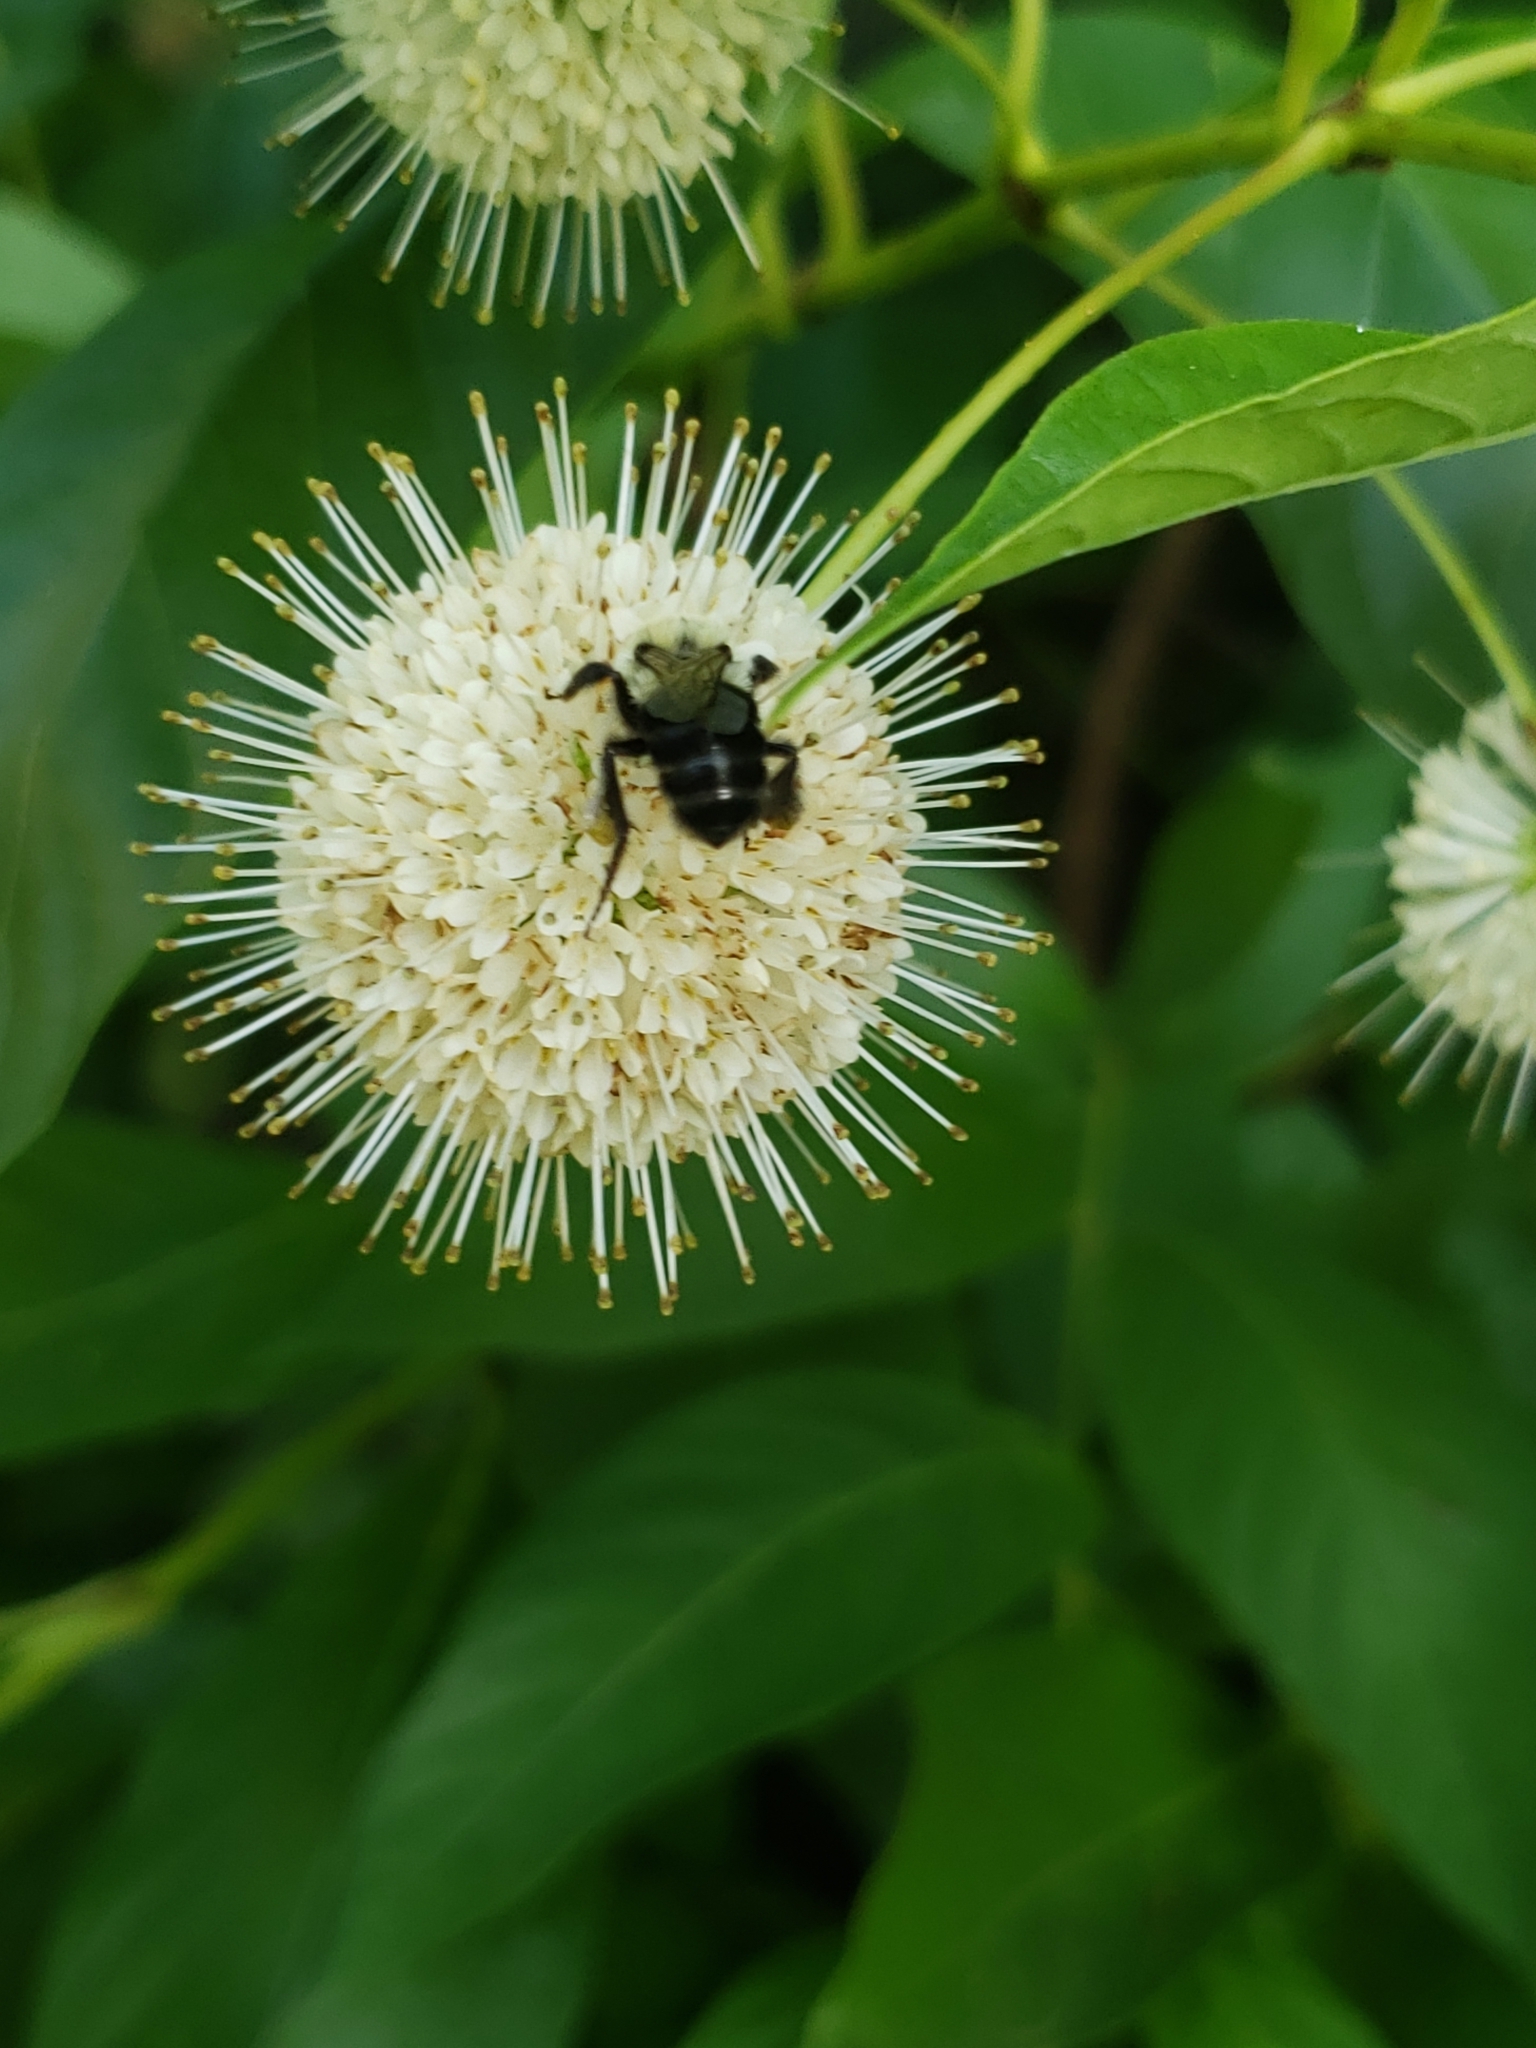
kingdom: Animalia
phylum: Arthropoda
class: Insecta
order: Hymenoptera
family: Apidae
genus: Bombus
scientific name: Bombus impatiens
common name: Common eastern bumble bee
